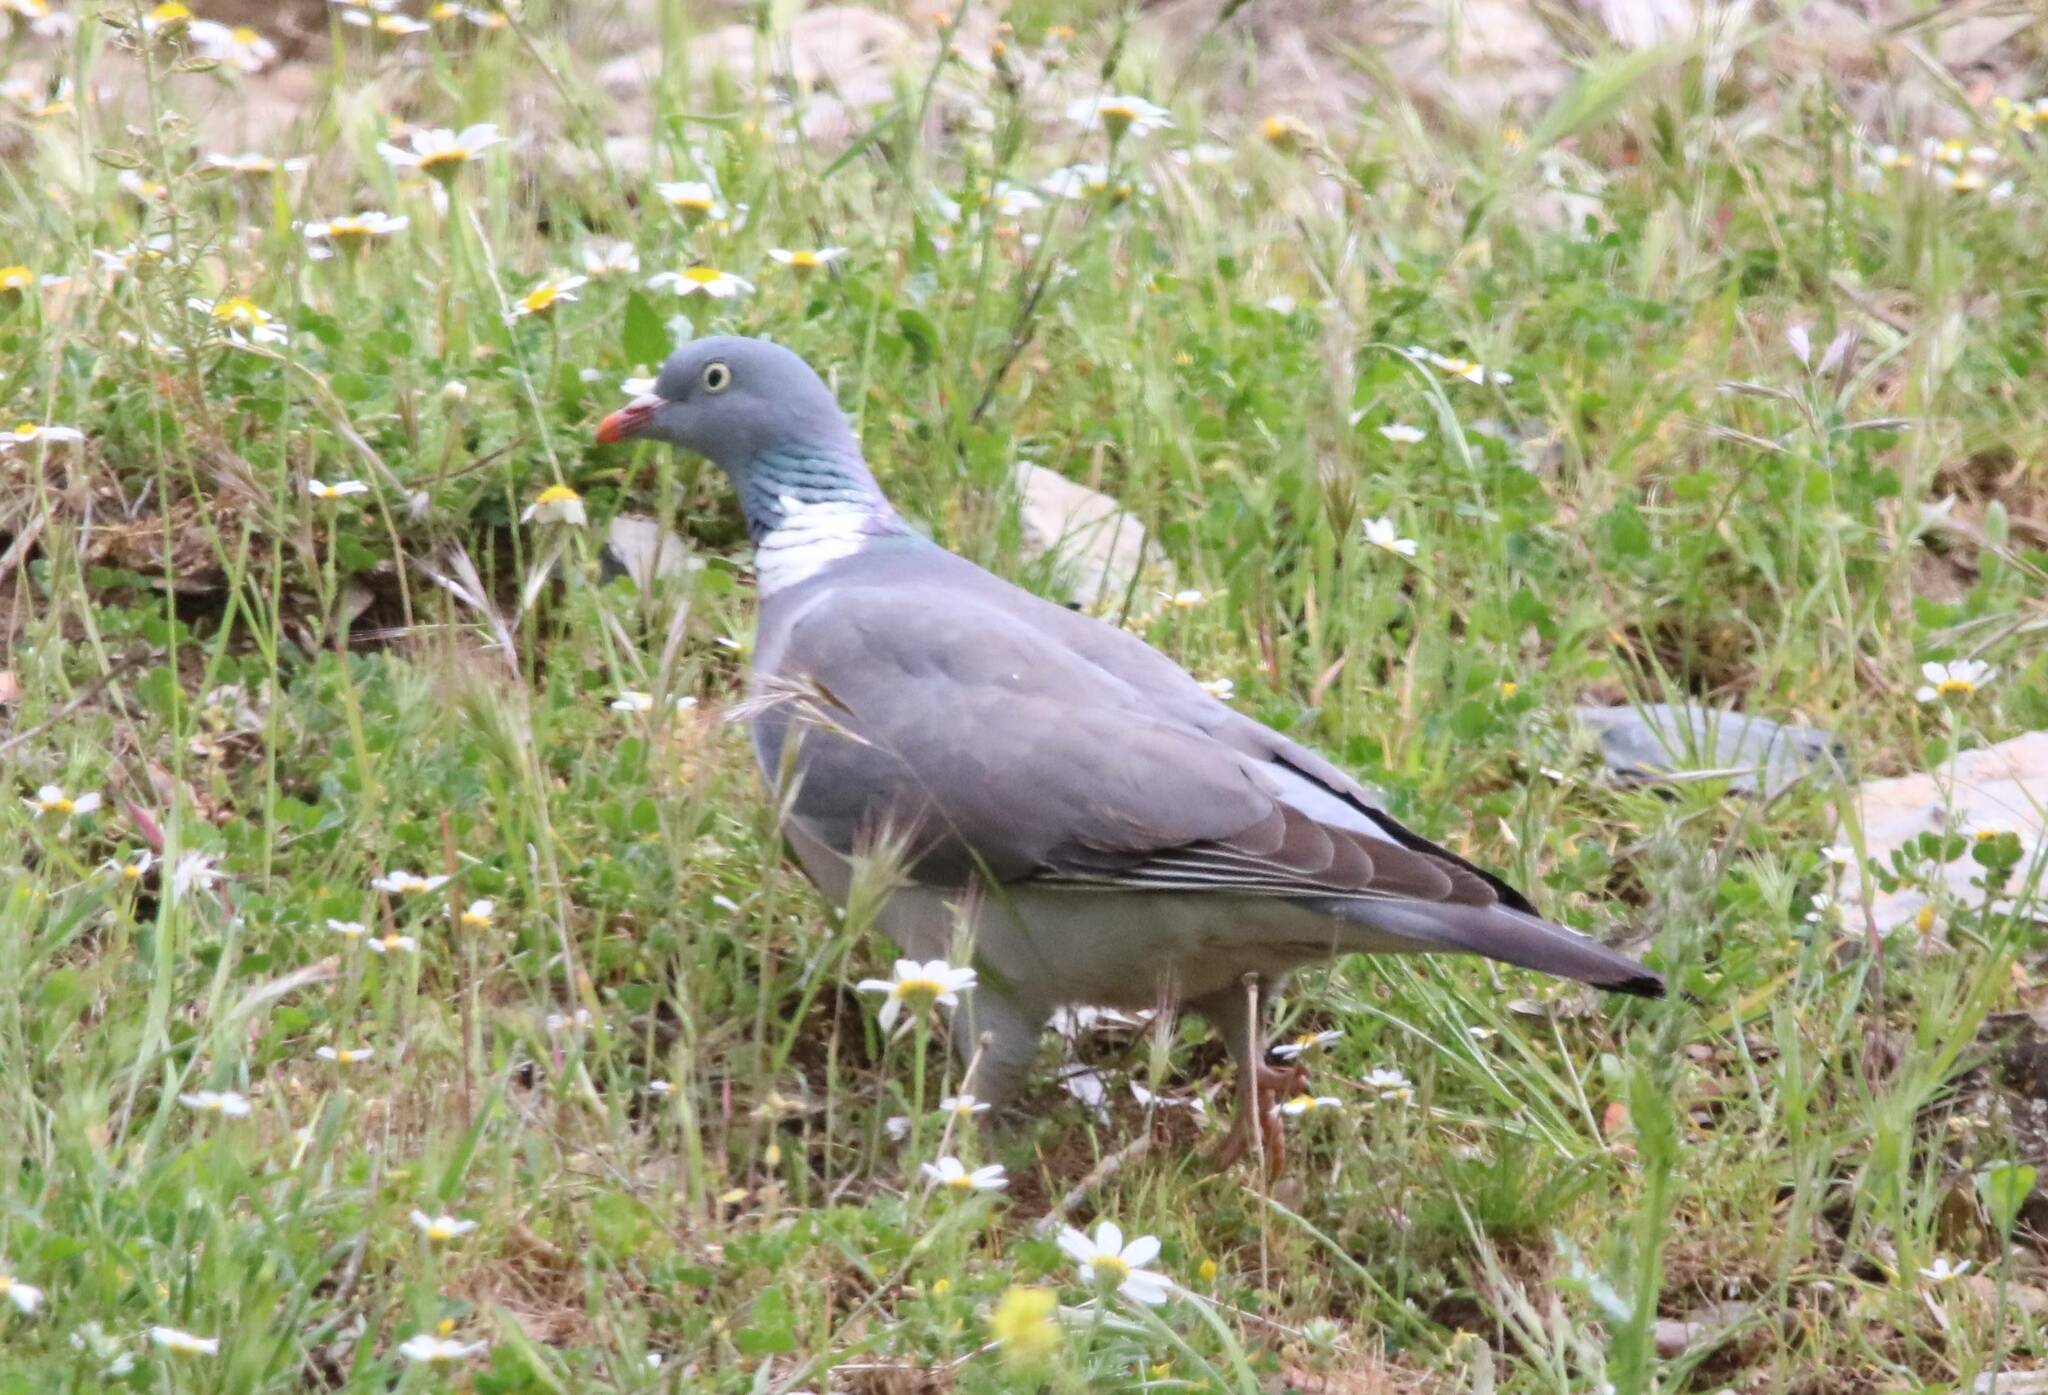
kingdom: Animalia
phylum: Chordata
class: Aves
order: Columbiformes
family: Columbidae
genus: Columba
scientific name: Columba palumbus
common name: Common wood pigeon
